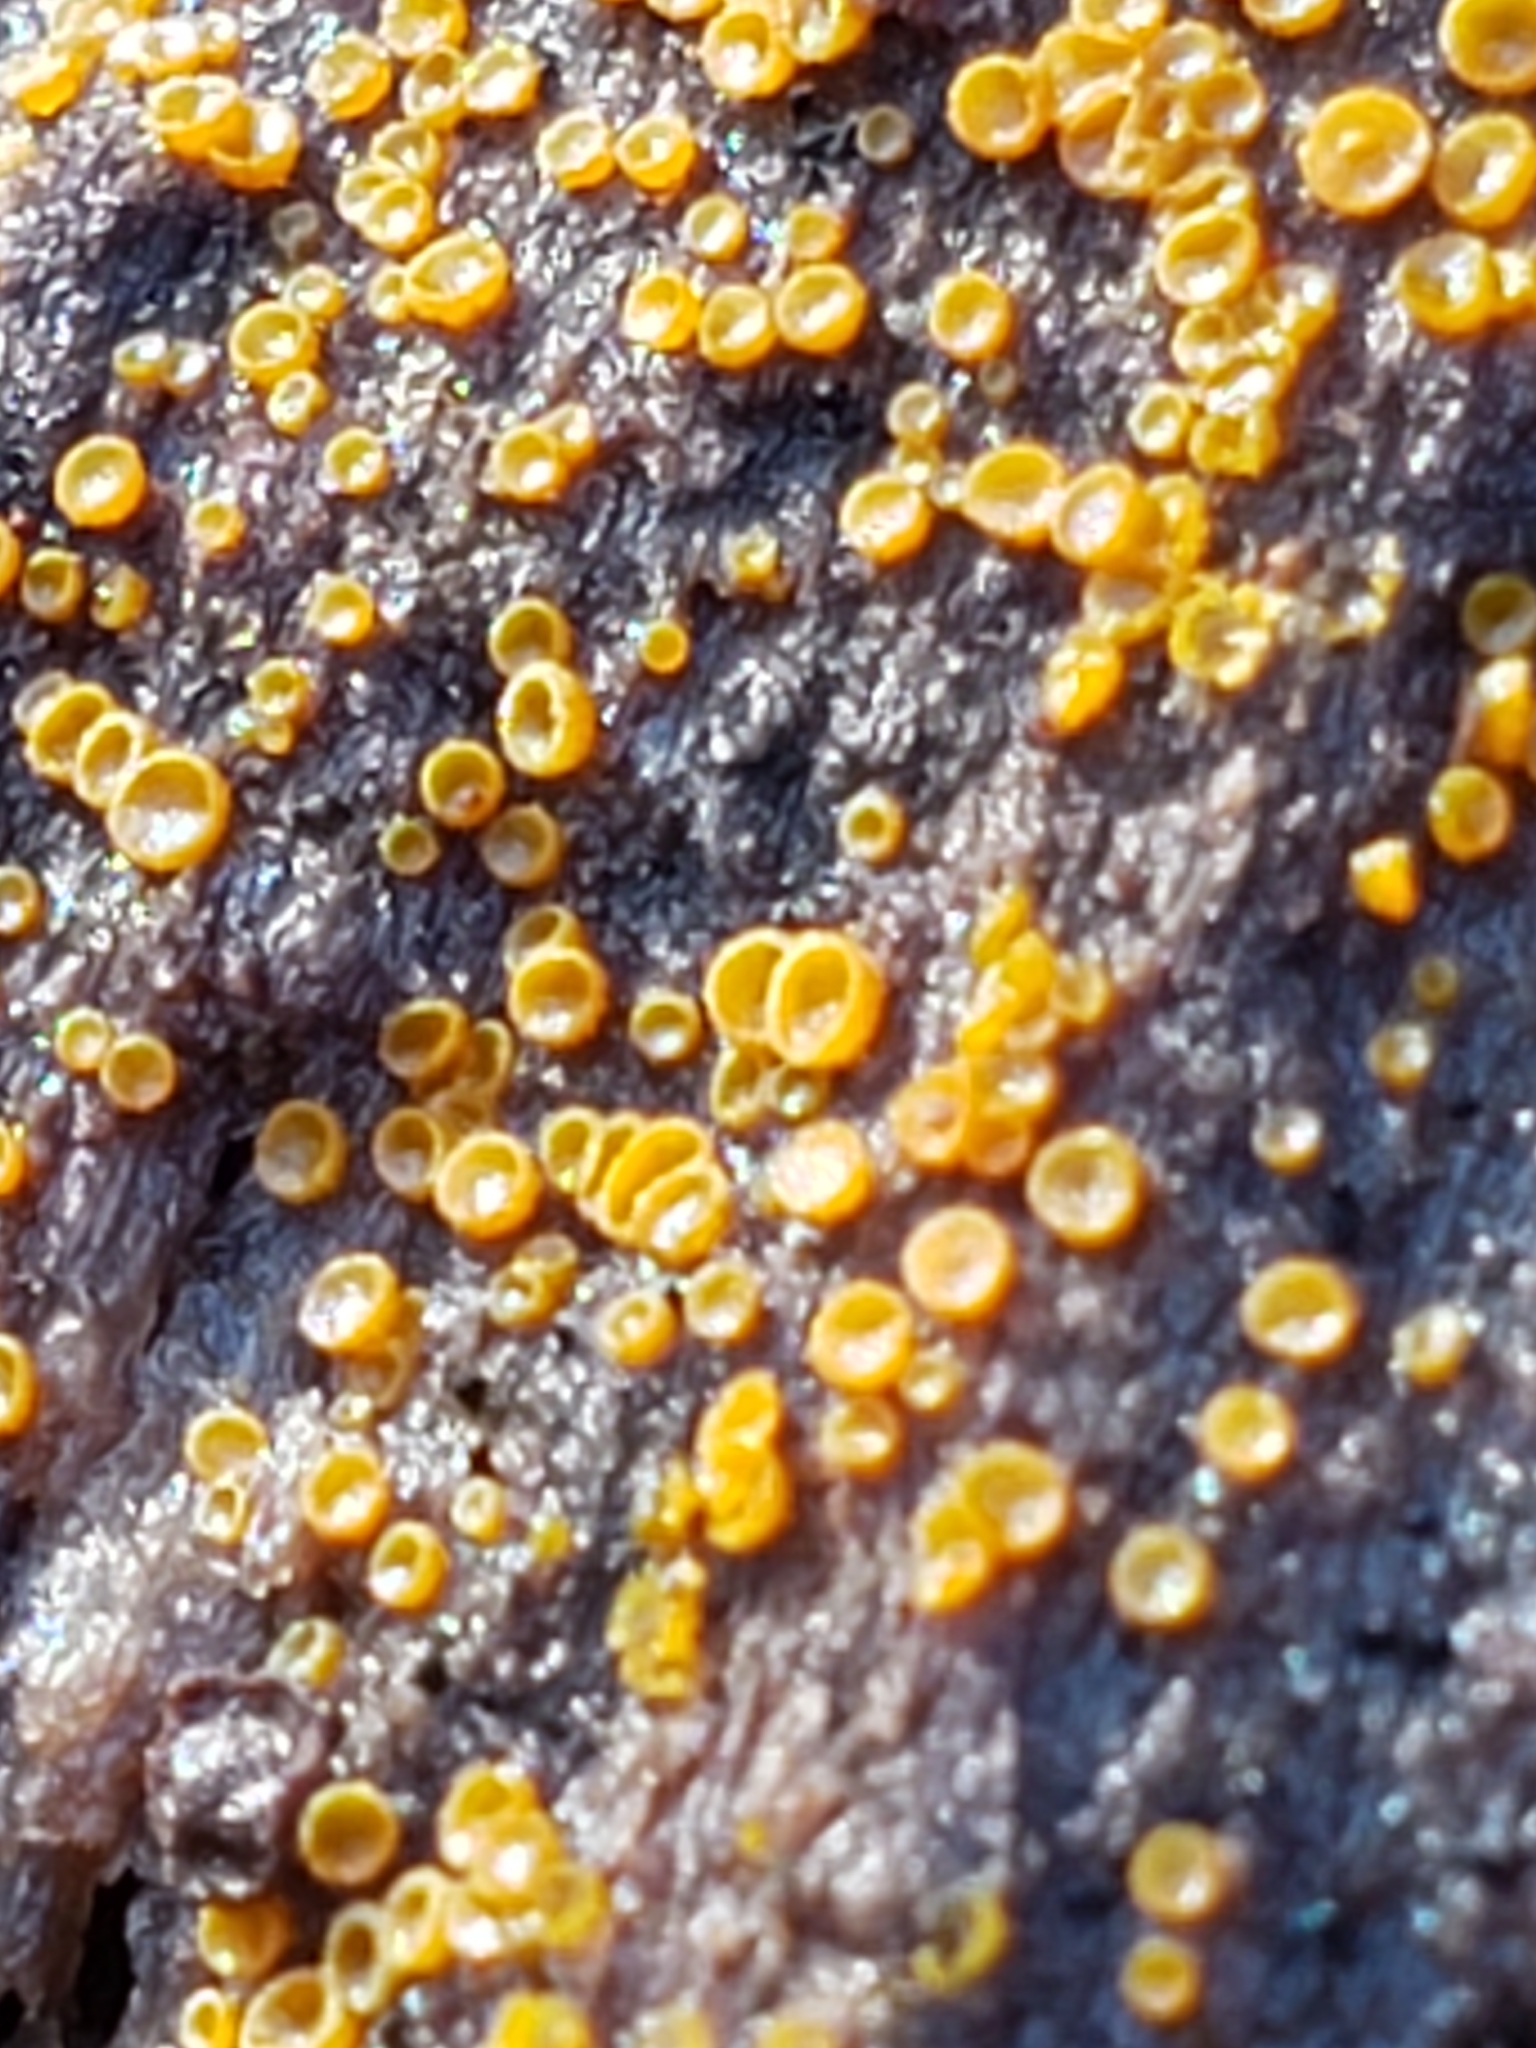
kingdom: Fungi
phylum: Ascomycota
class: Leotiomycetes
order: Helotiales
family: Arachnopezizaceae
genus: Arachnopeziza
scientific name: Arachnopeziza trabinelloides
